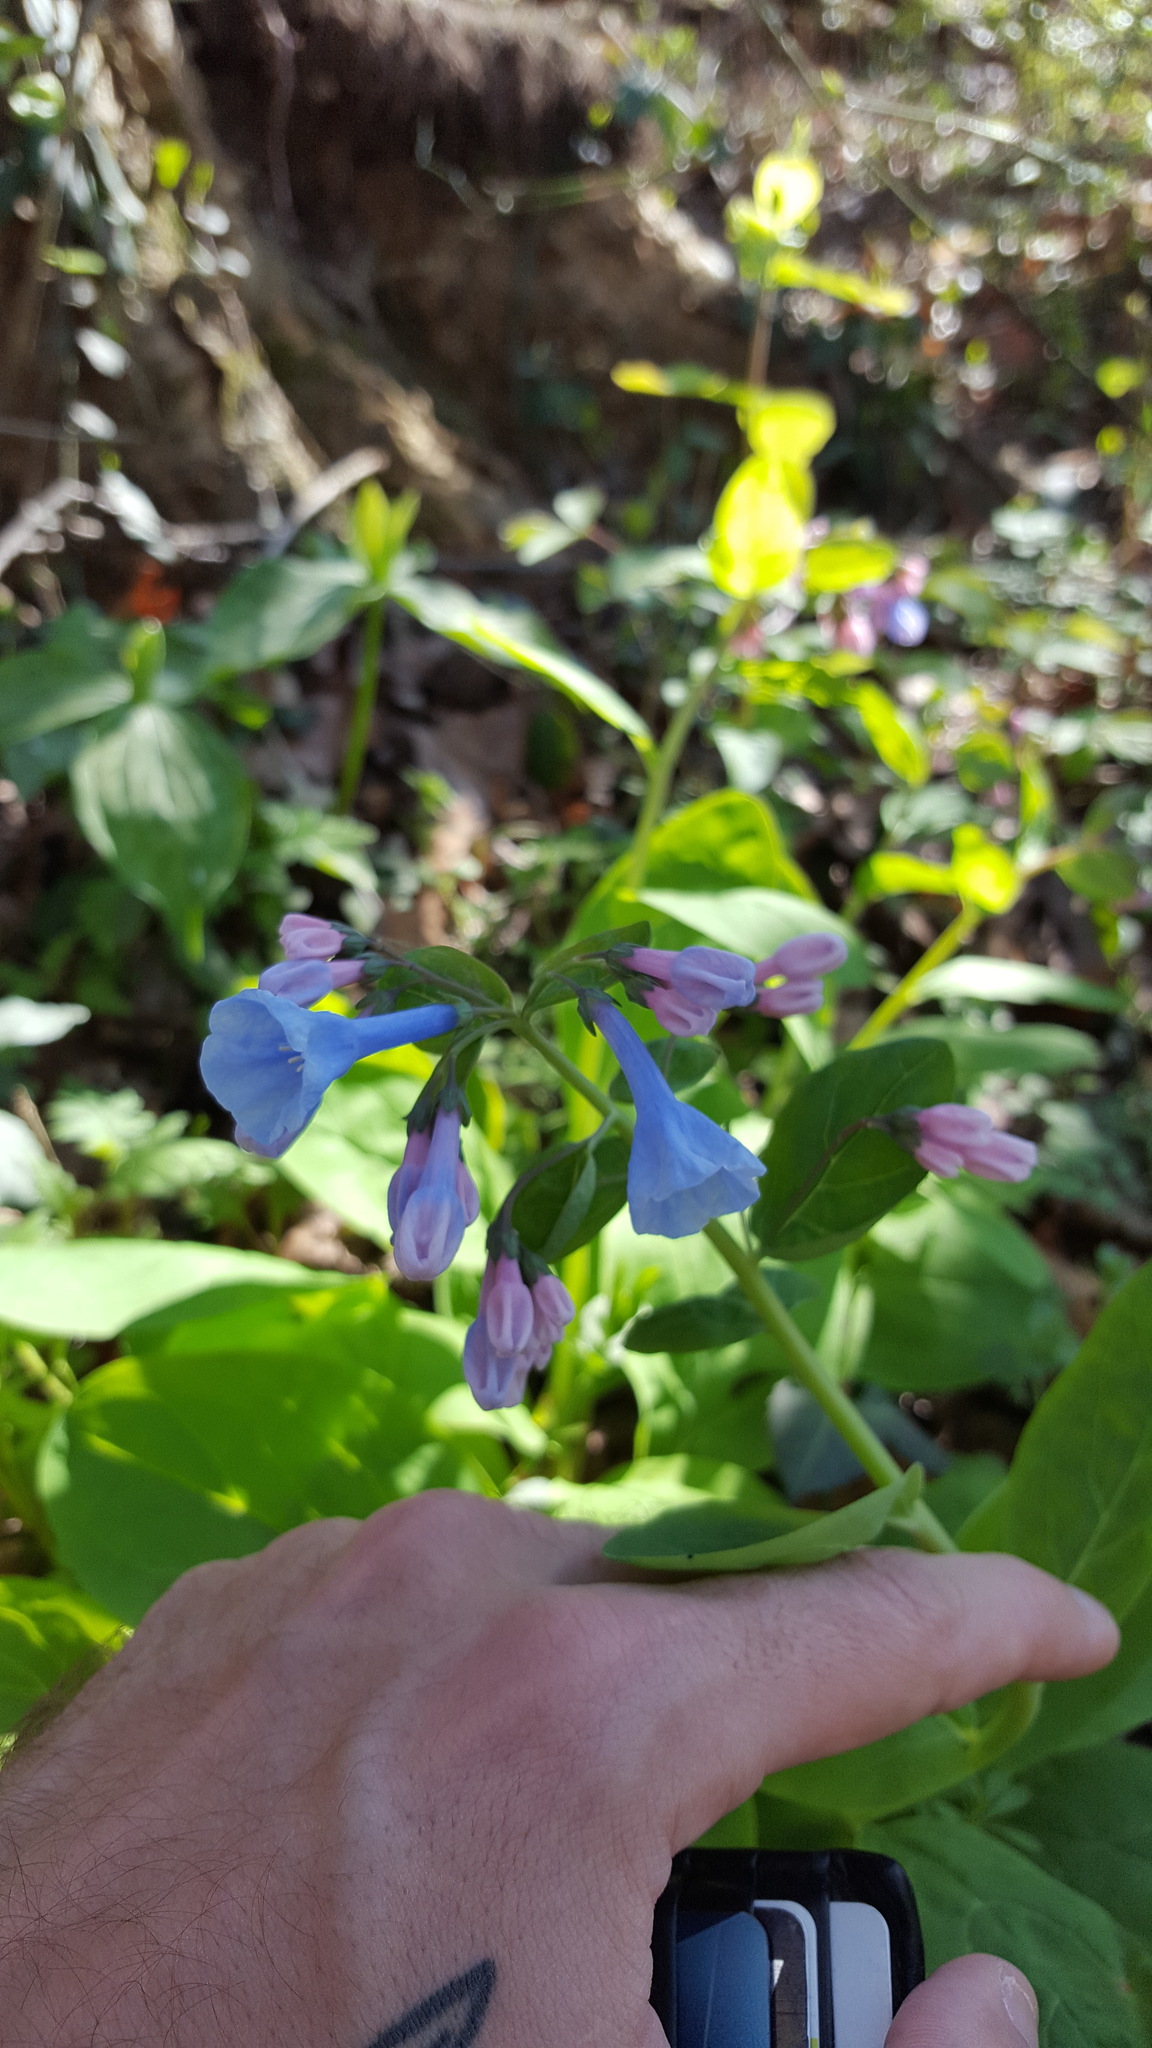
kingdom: Plantae
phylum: Tracheophyta
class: Magnoliopsida
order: Boraginales
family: Boraginaceae
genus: Mertensia
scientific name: Mertensia virginica
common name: Virginia bluebells
